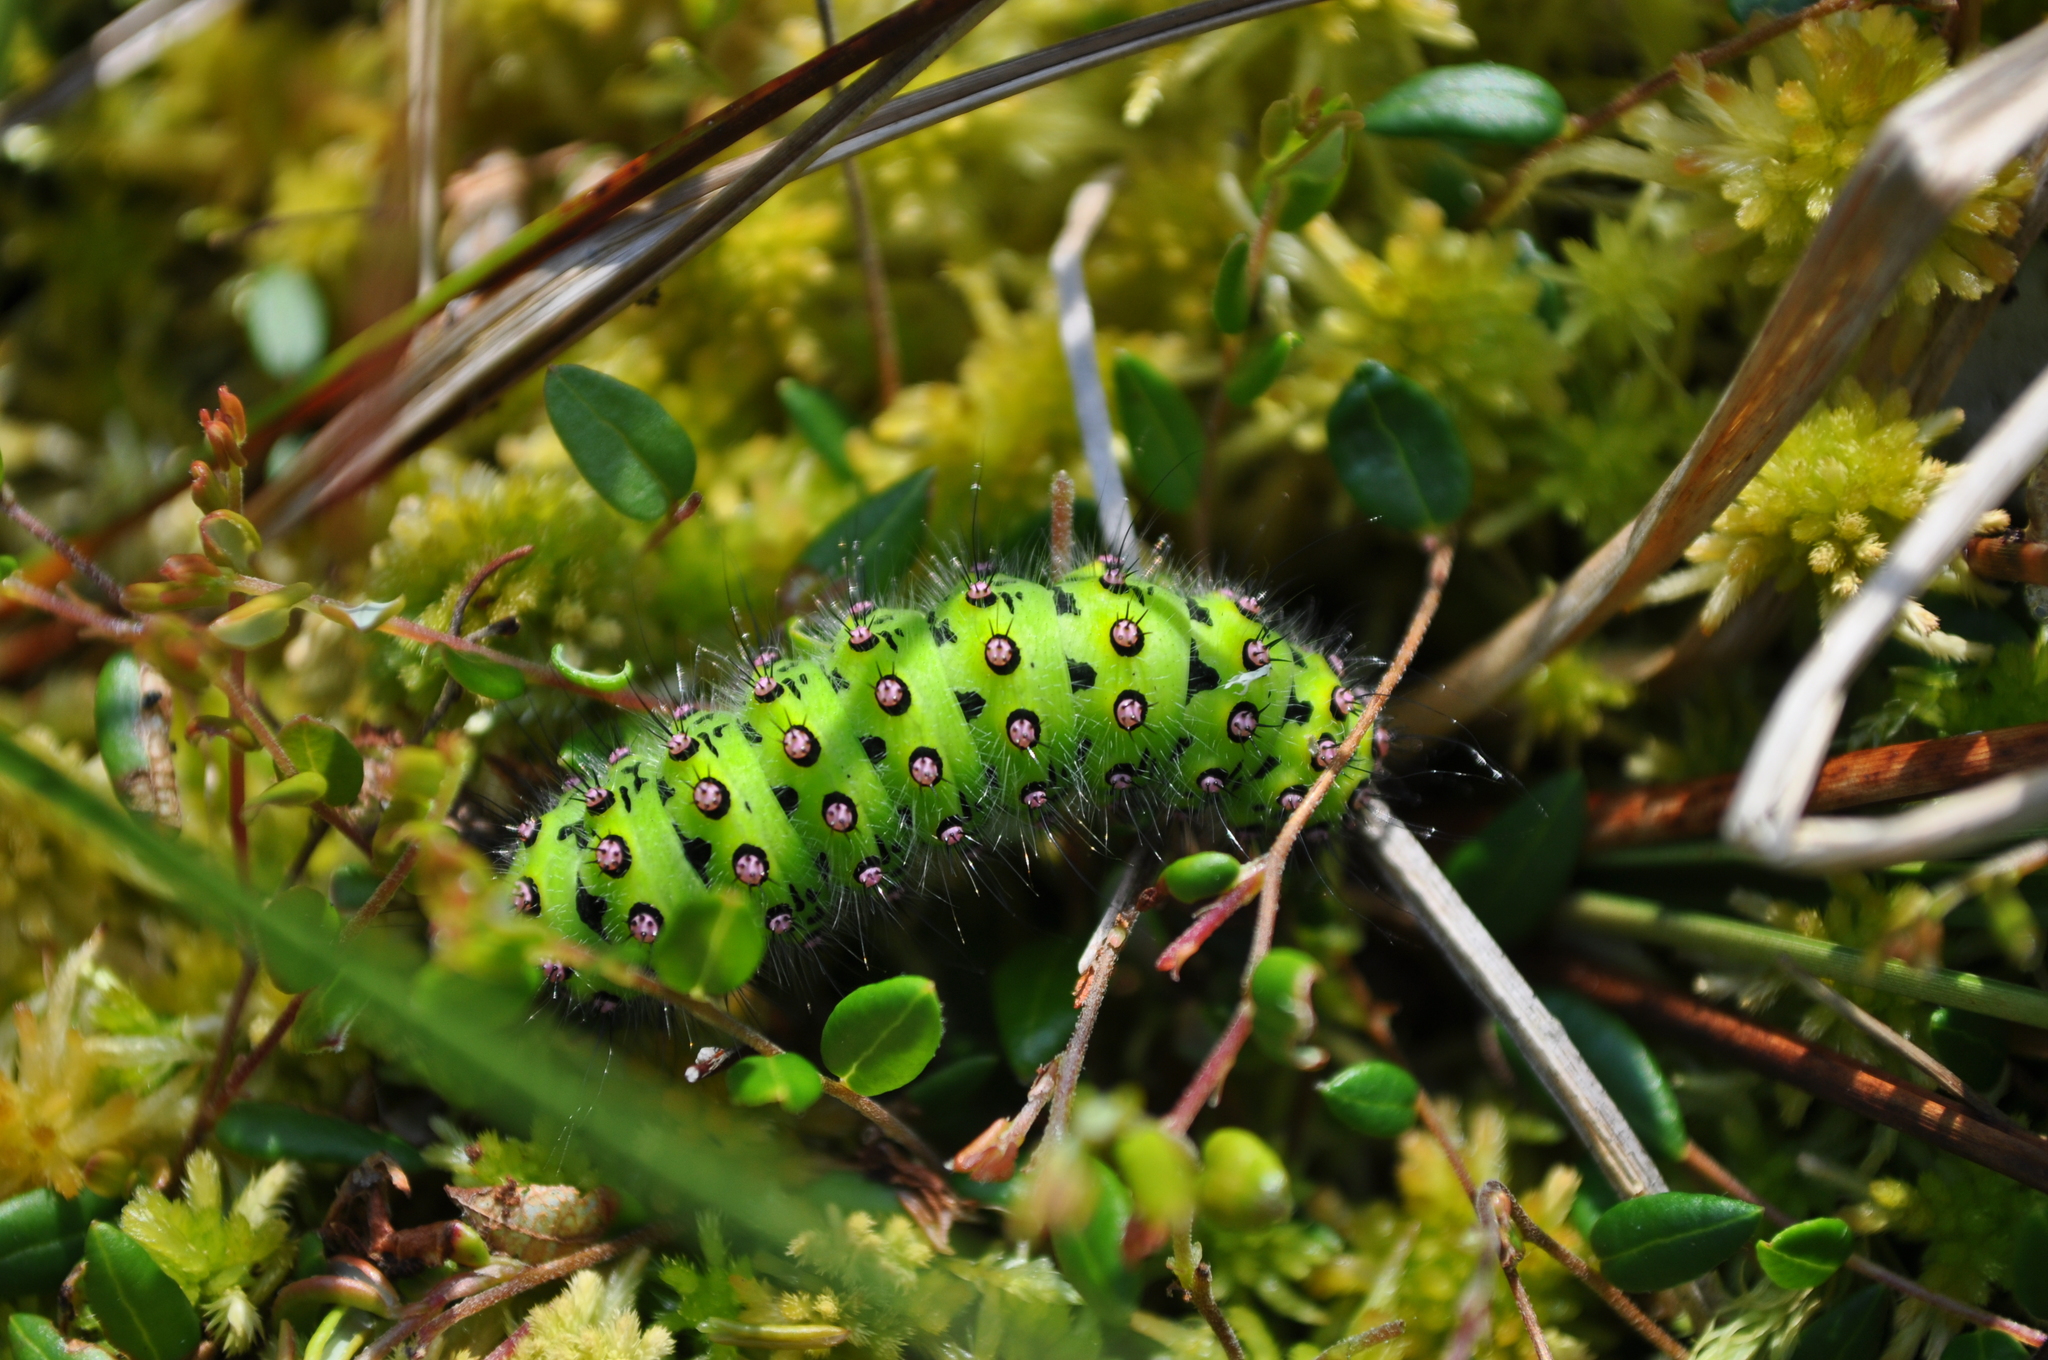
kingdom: Animalia
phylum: Arthropoda
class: Insecta
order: Lepidoptera
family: Saturniidae
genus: Saturnia
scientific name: Saturnia pavonia
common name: Emperor moth
